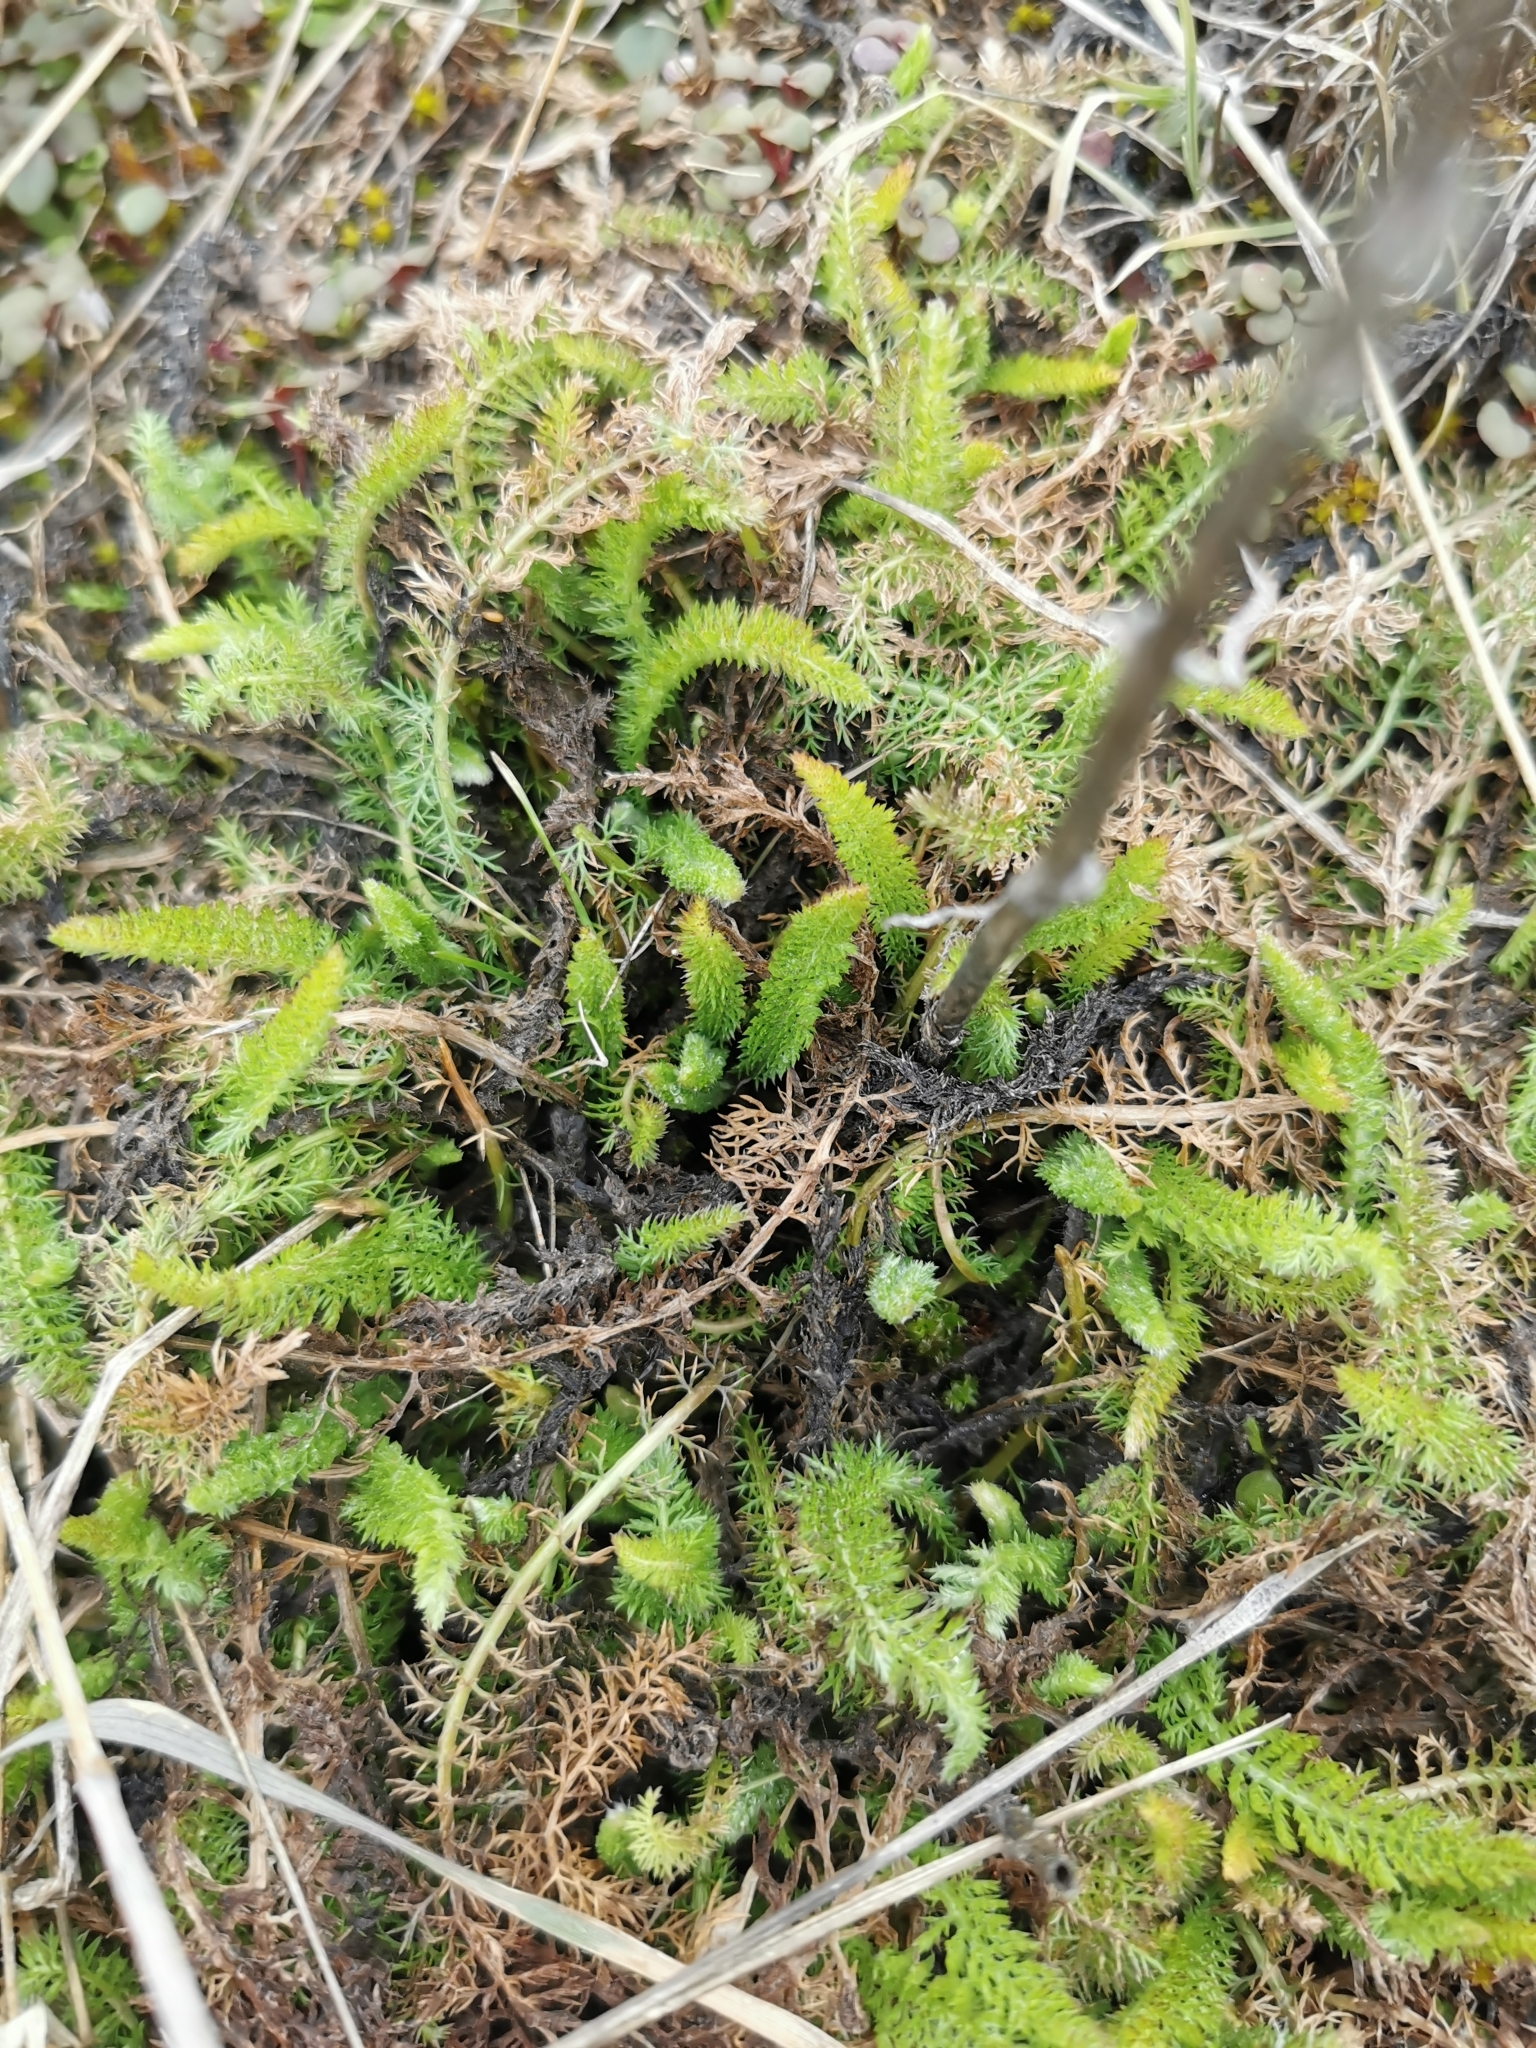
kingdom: Plantae
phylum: Tracheophyta
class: Magnoliopsida
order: Asterales
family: Asteraceae
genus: Achillea
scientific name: Achillea millefolium
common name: Yarrow
